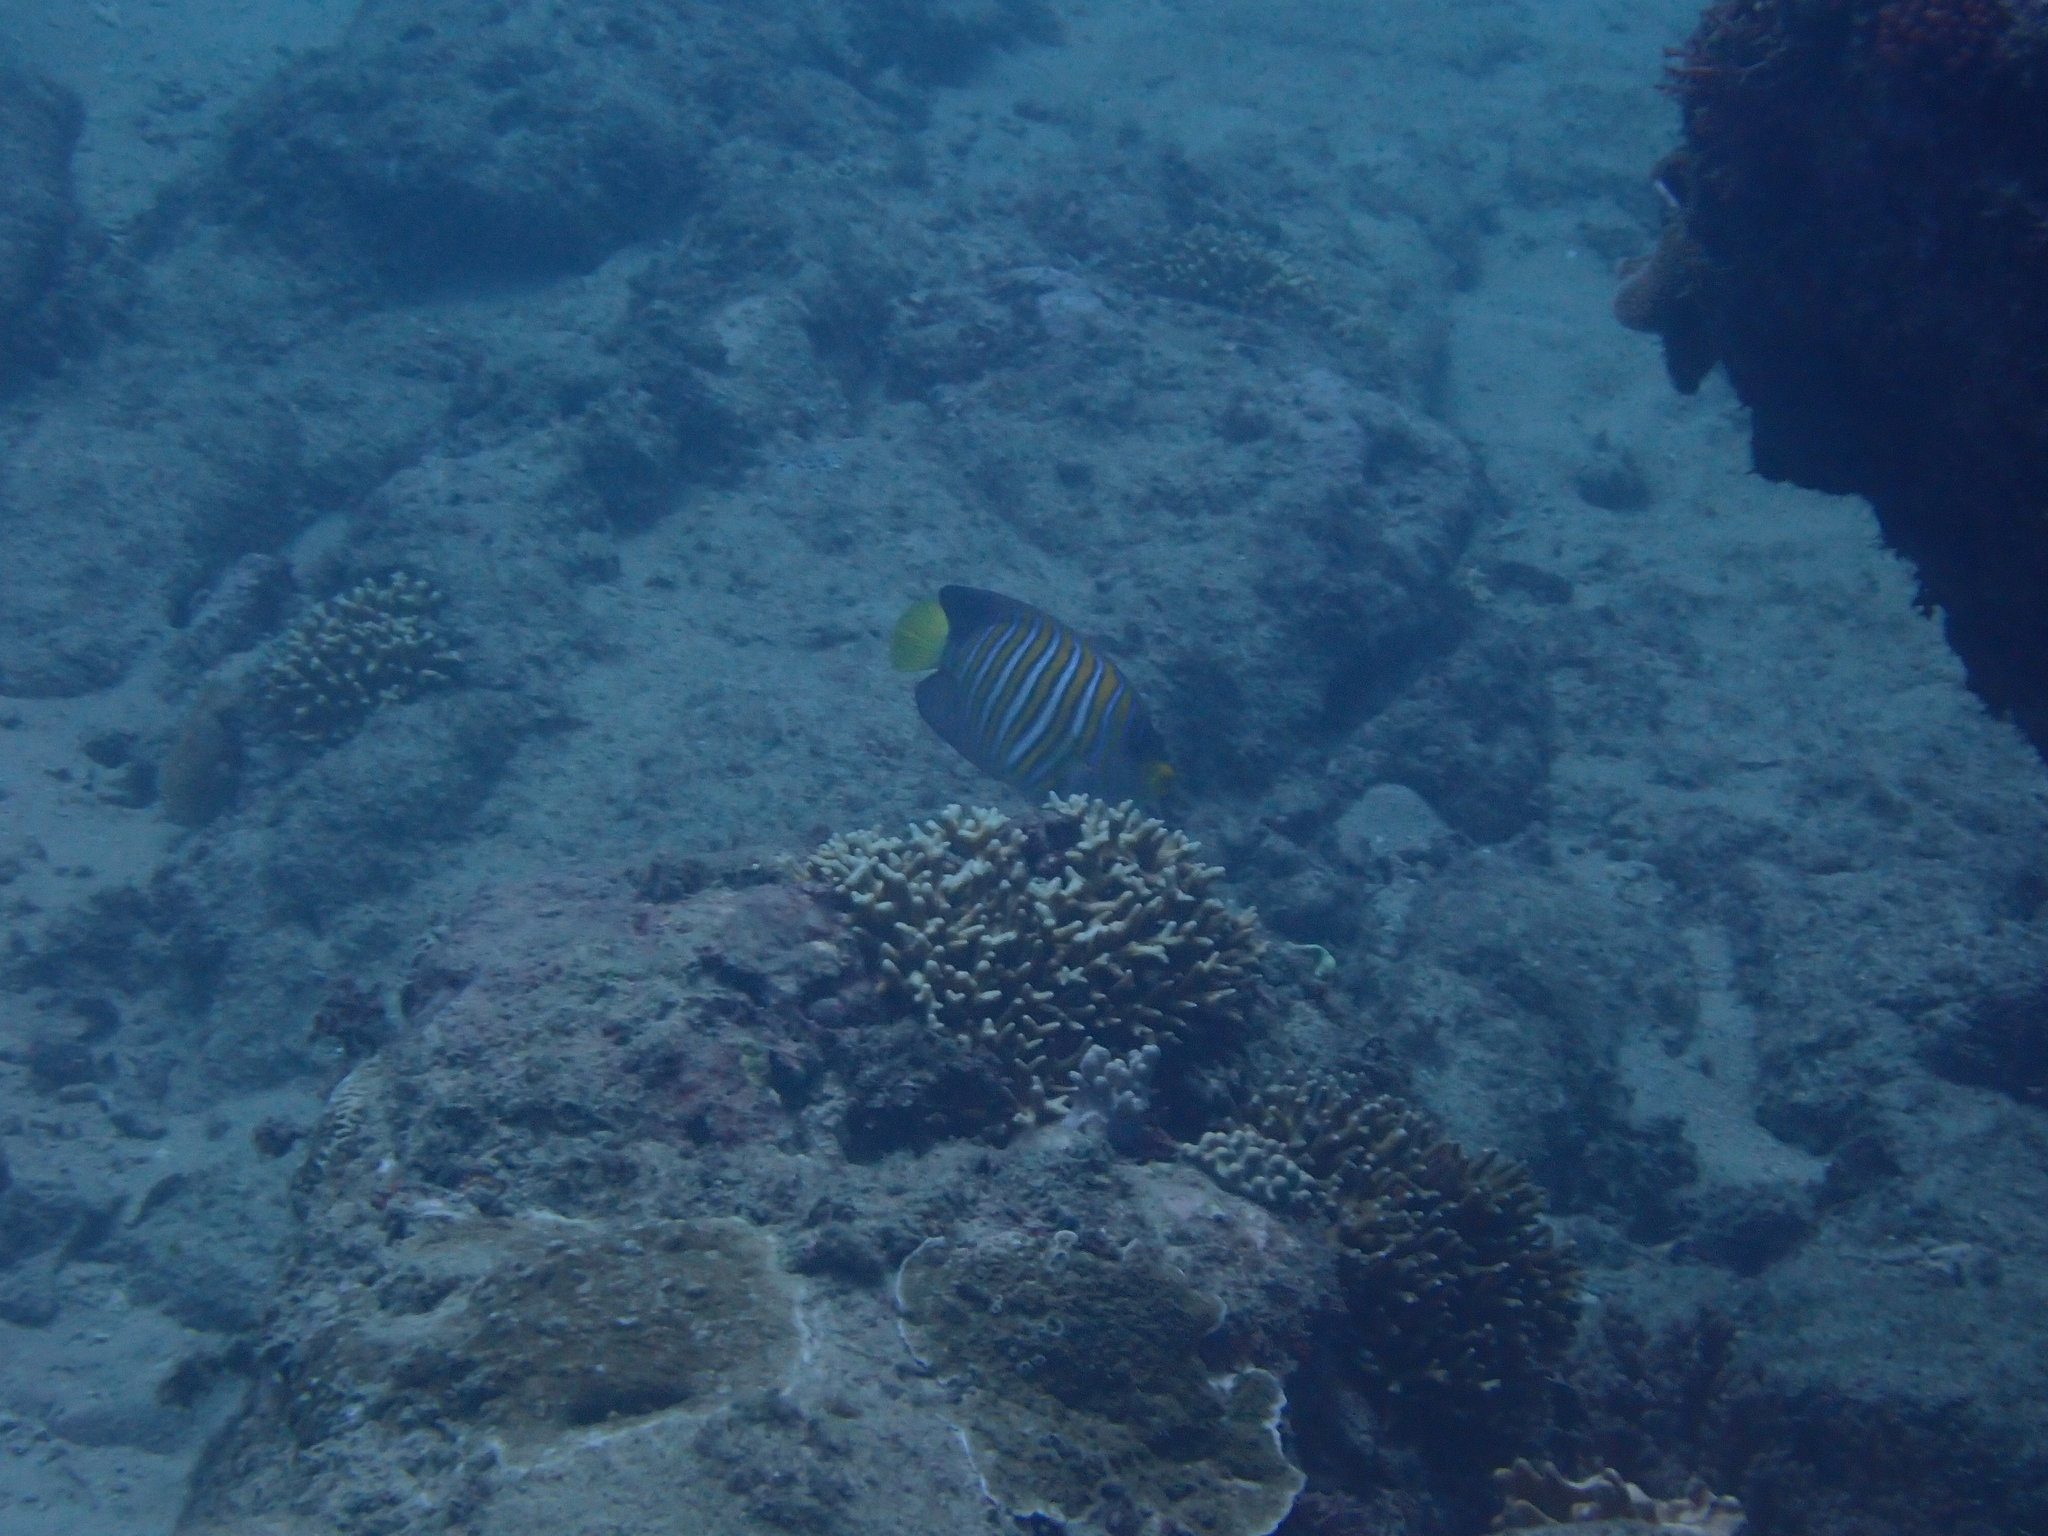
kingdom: Animalia
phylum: Chordata
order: Perciformes
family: Pomacanthidae
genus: Pygoplites
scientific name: Pygoplites diacanthus
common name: Regal angelfish
